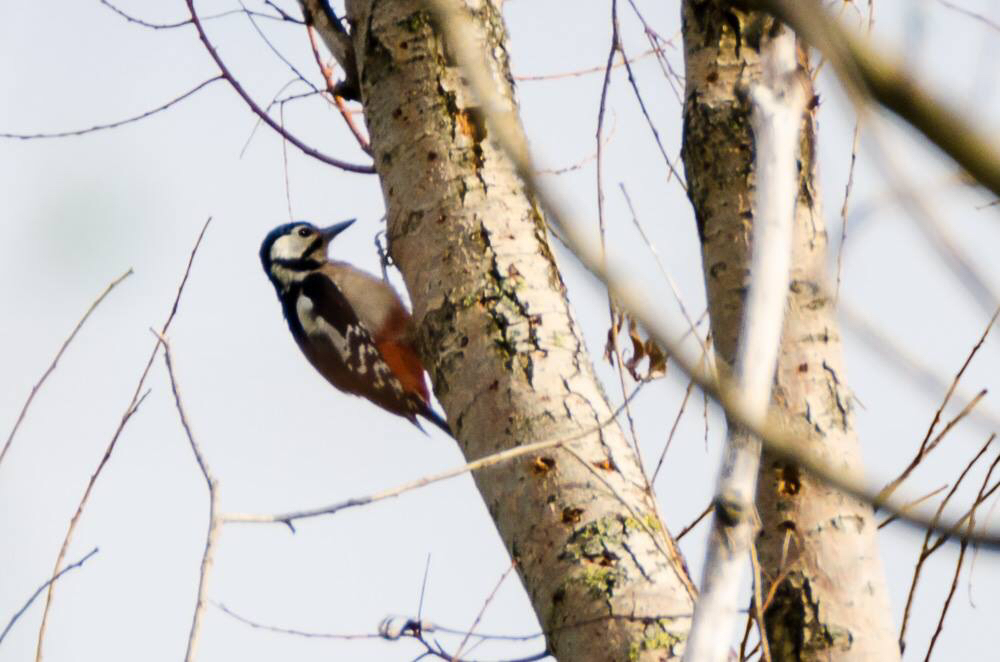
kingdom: Animalia
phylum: Chordata
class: Aves
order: Piciformes
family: Picidae
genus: Dendrocopos
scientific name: Dendrocopos major
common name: Great spotted woodpecker
